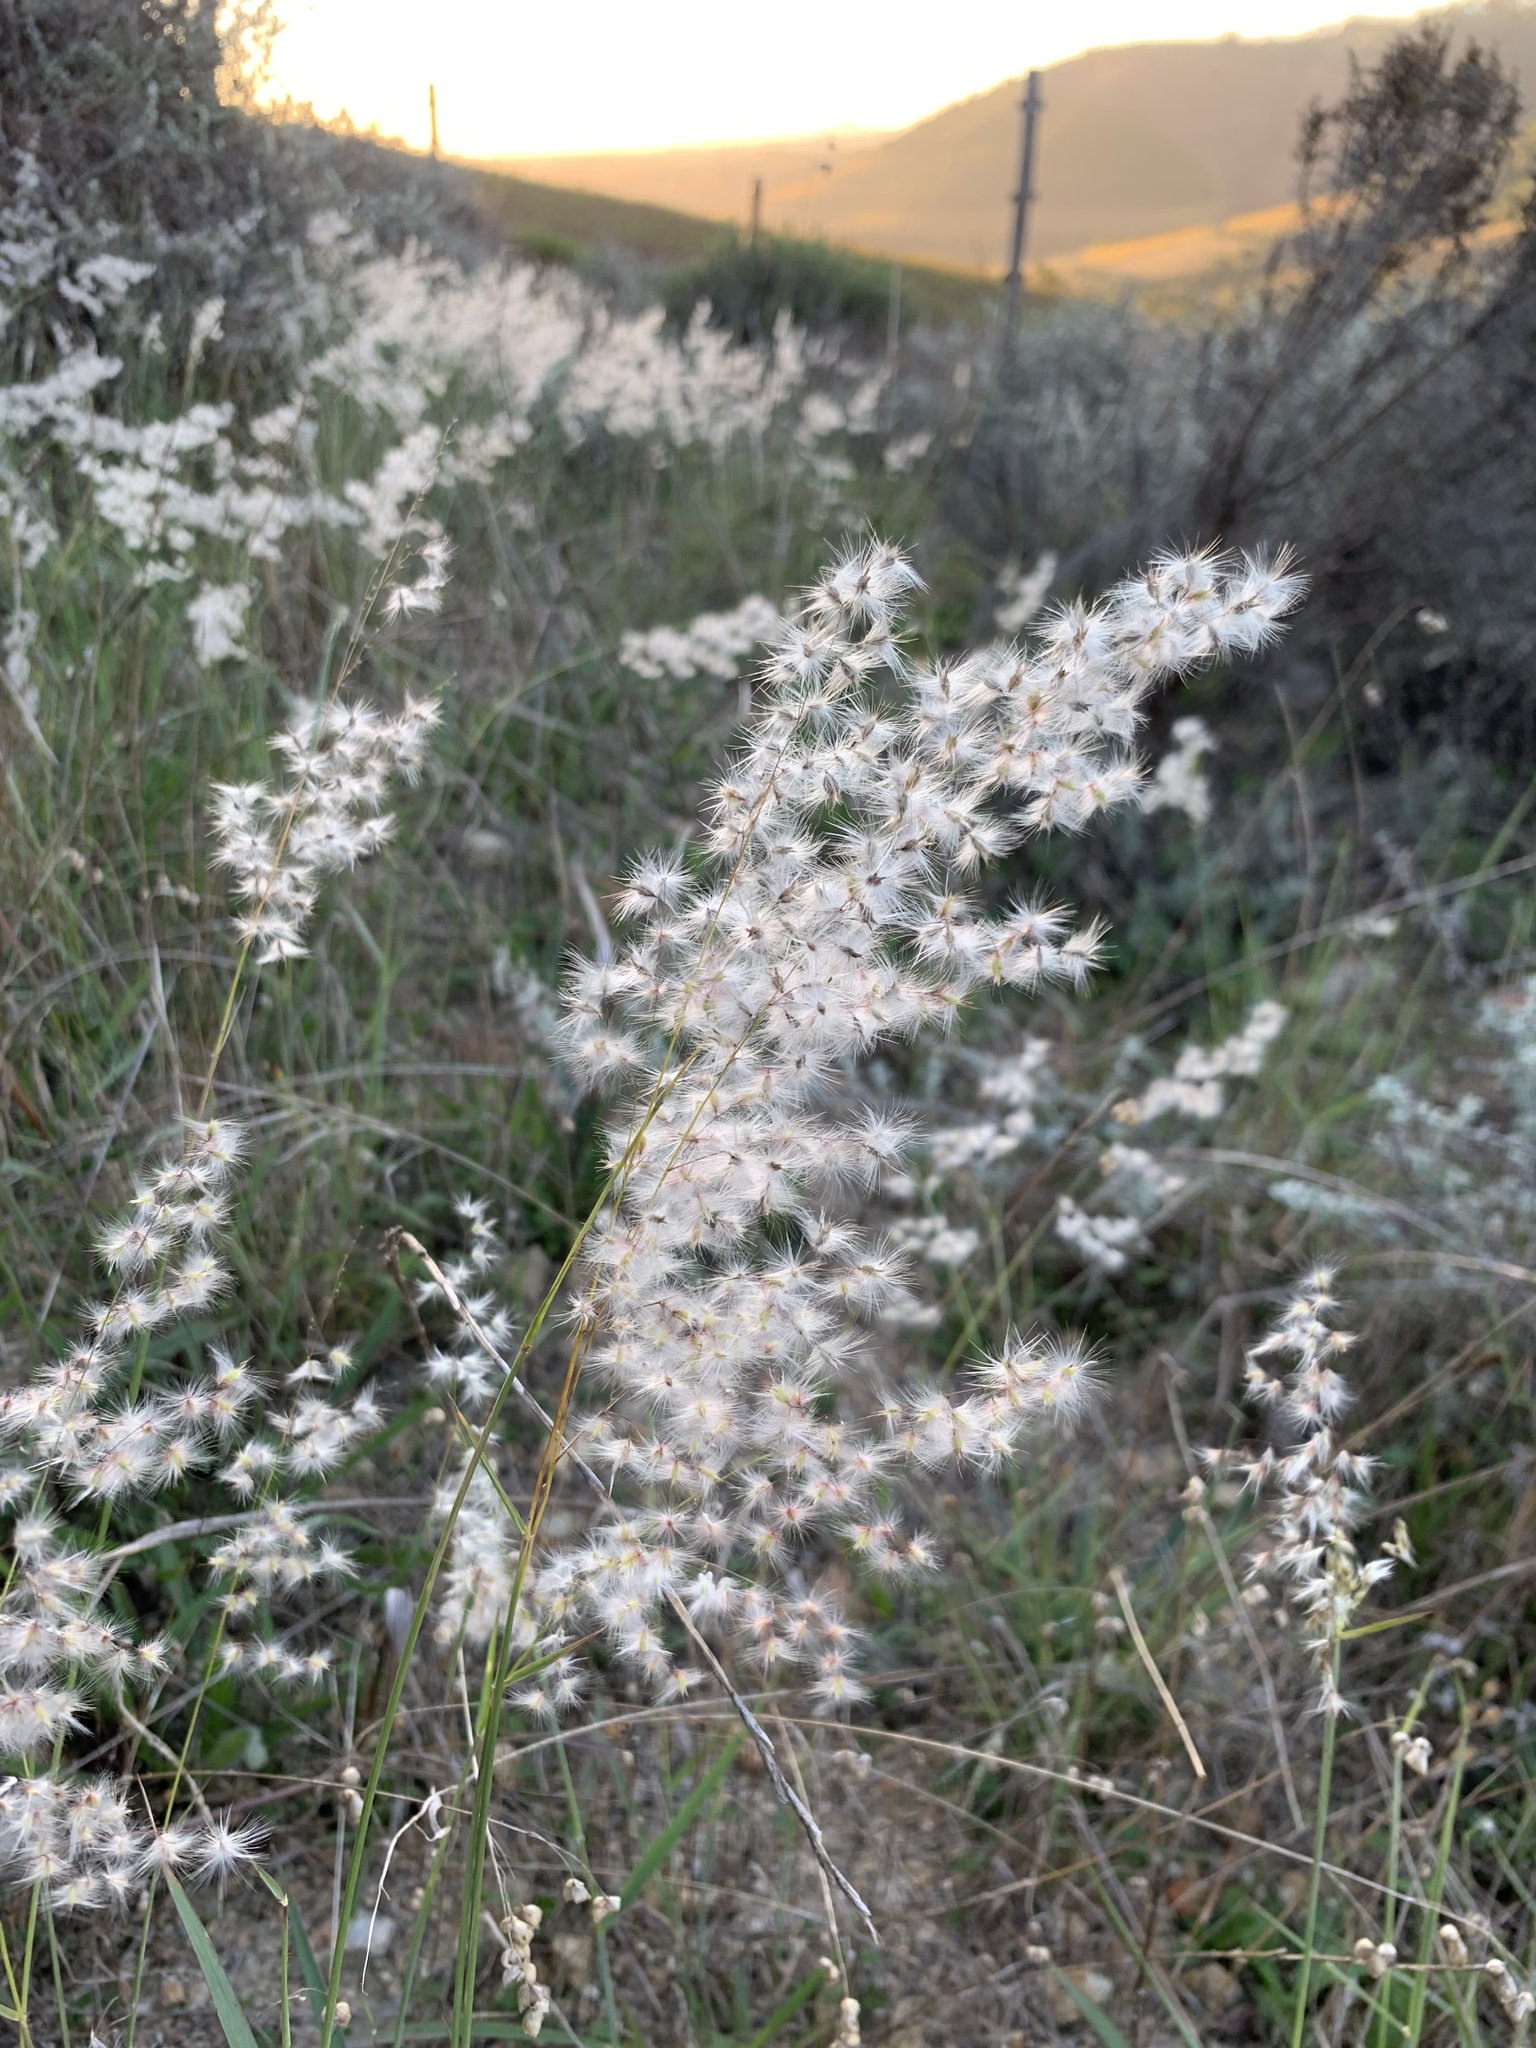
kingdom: Plantae
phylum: Tracheophyta
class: Liliopsida
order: Poales
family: Poaceae
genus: Melinis
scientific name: Melinis repens
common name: Rose natal grass
